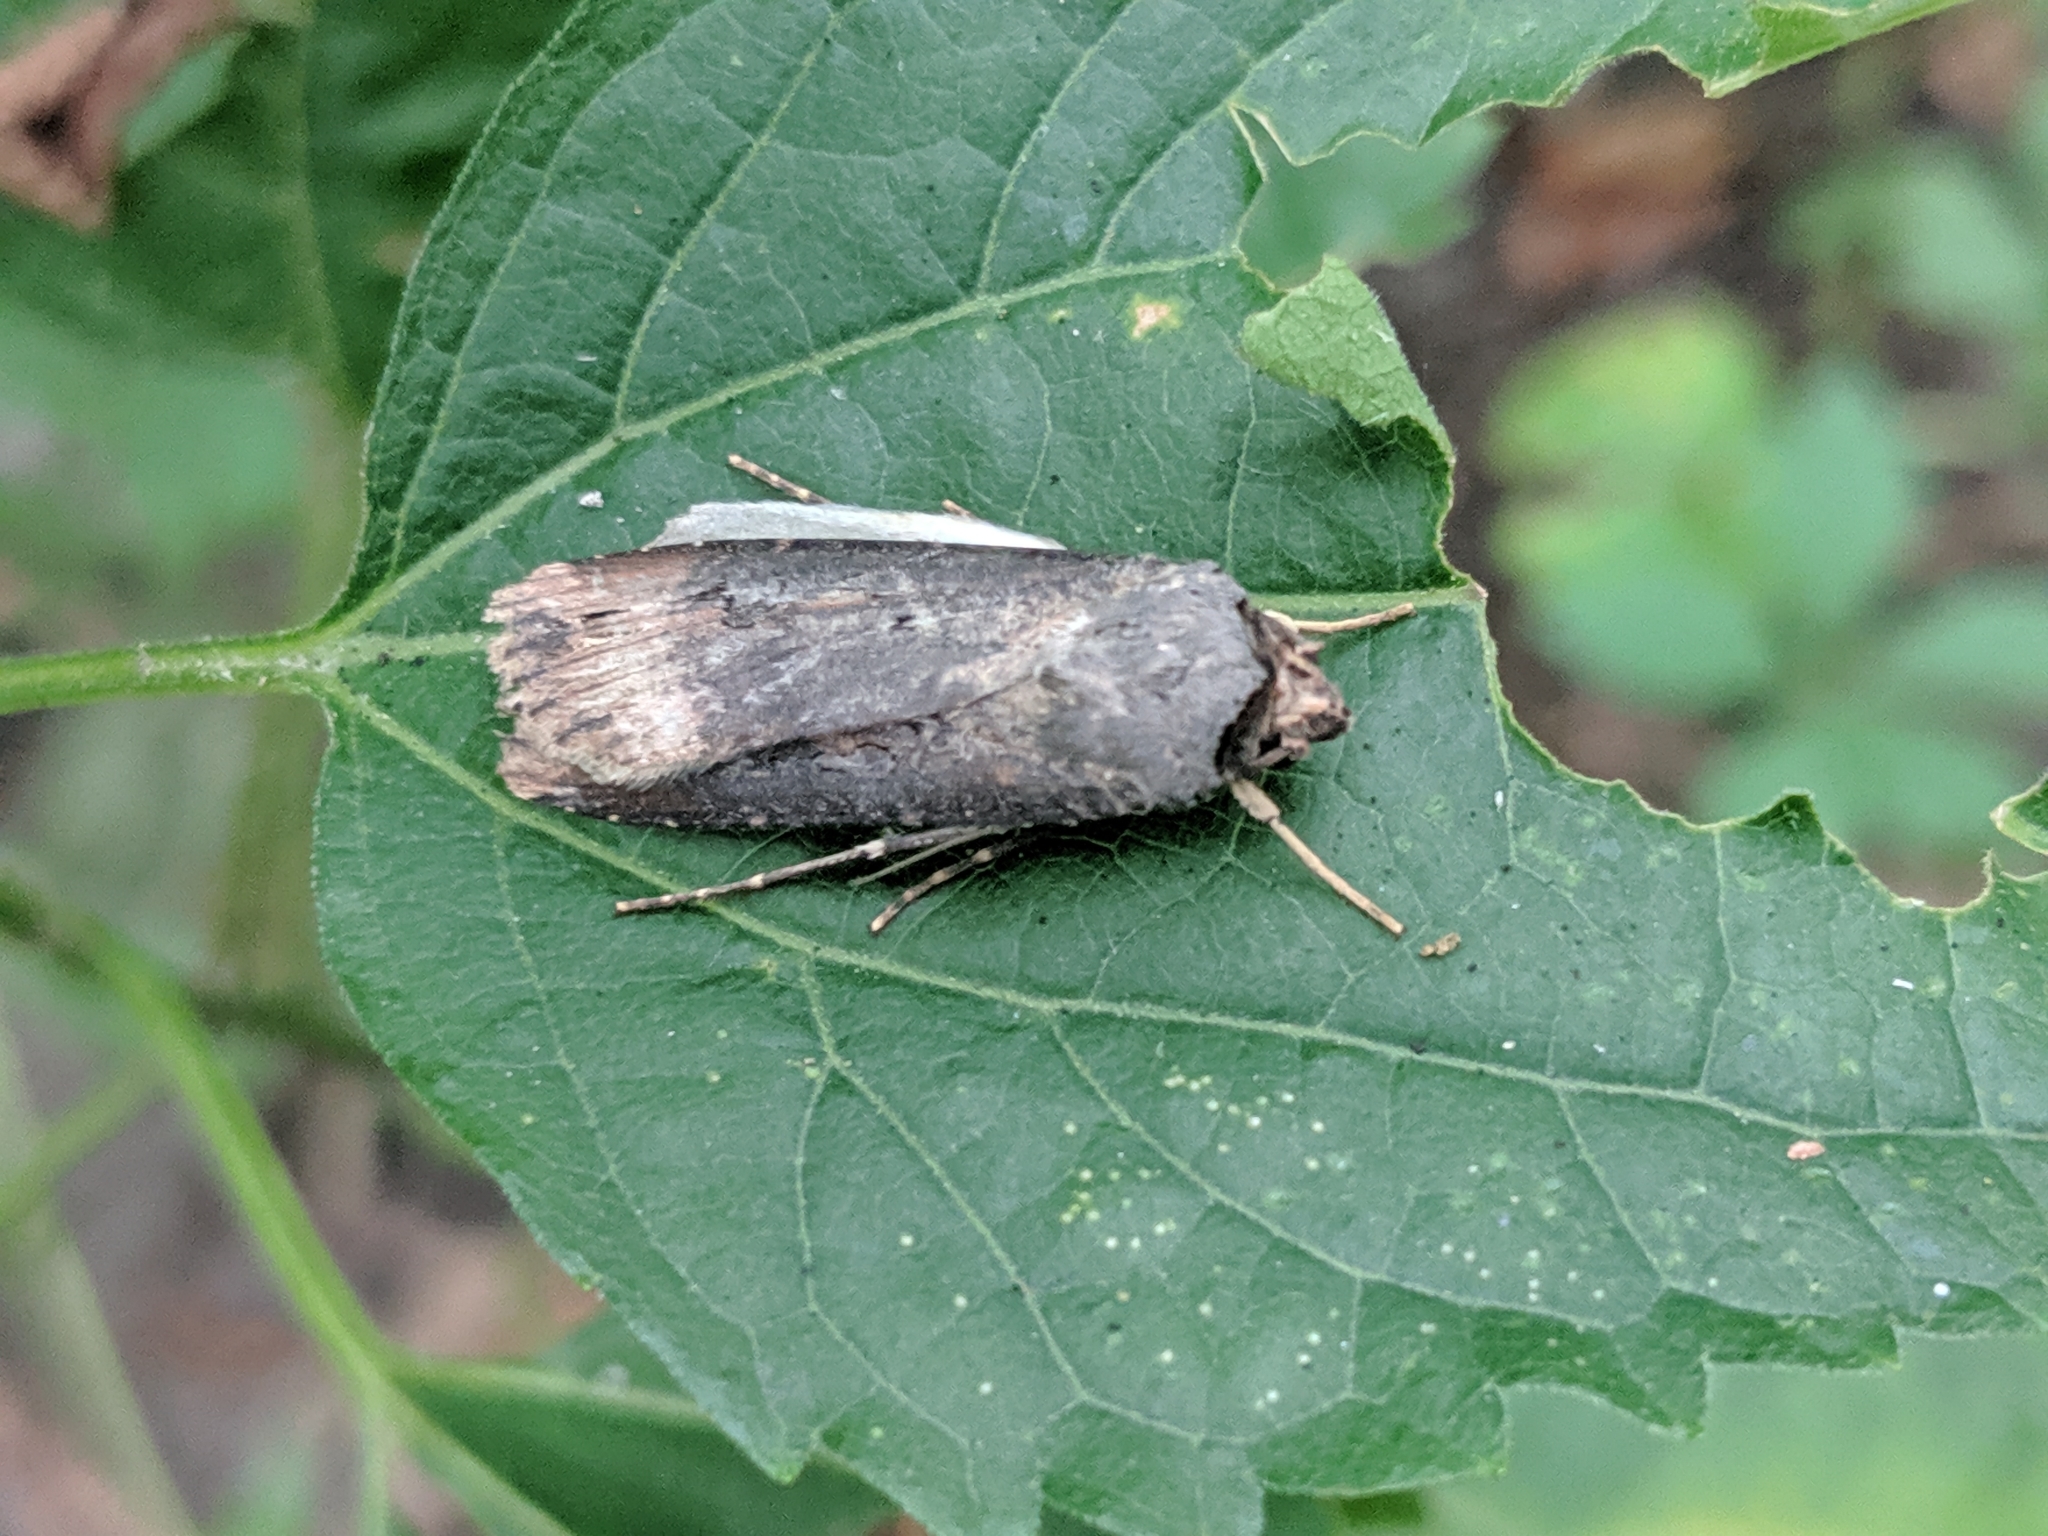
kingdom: Animalia
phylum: Arthropoda
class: Insecta
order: Lepidoptera
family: Noctuidae
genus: Agrotis
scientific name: Agrotis ipsilon
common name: Dark sword-grass
